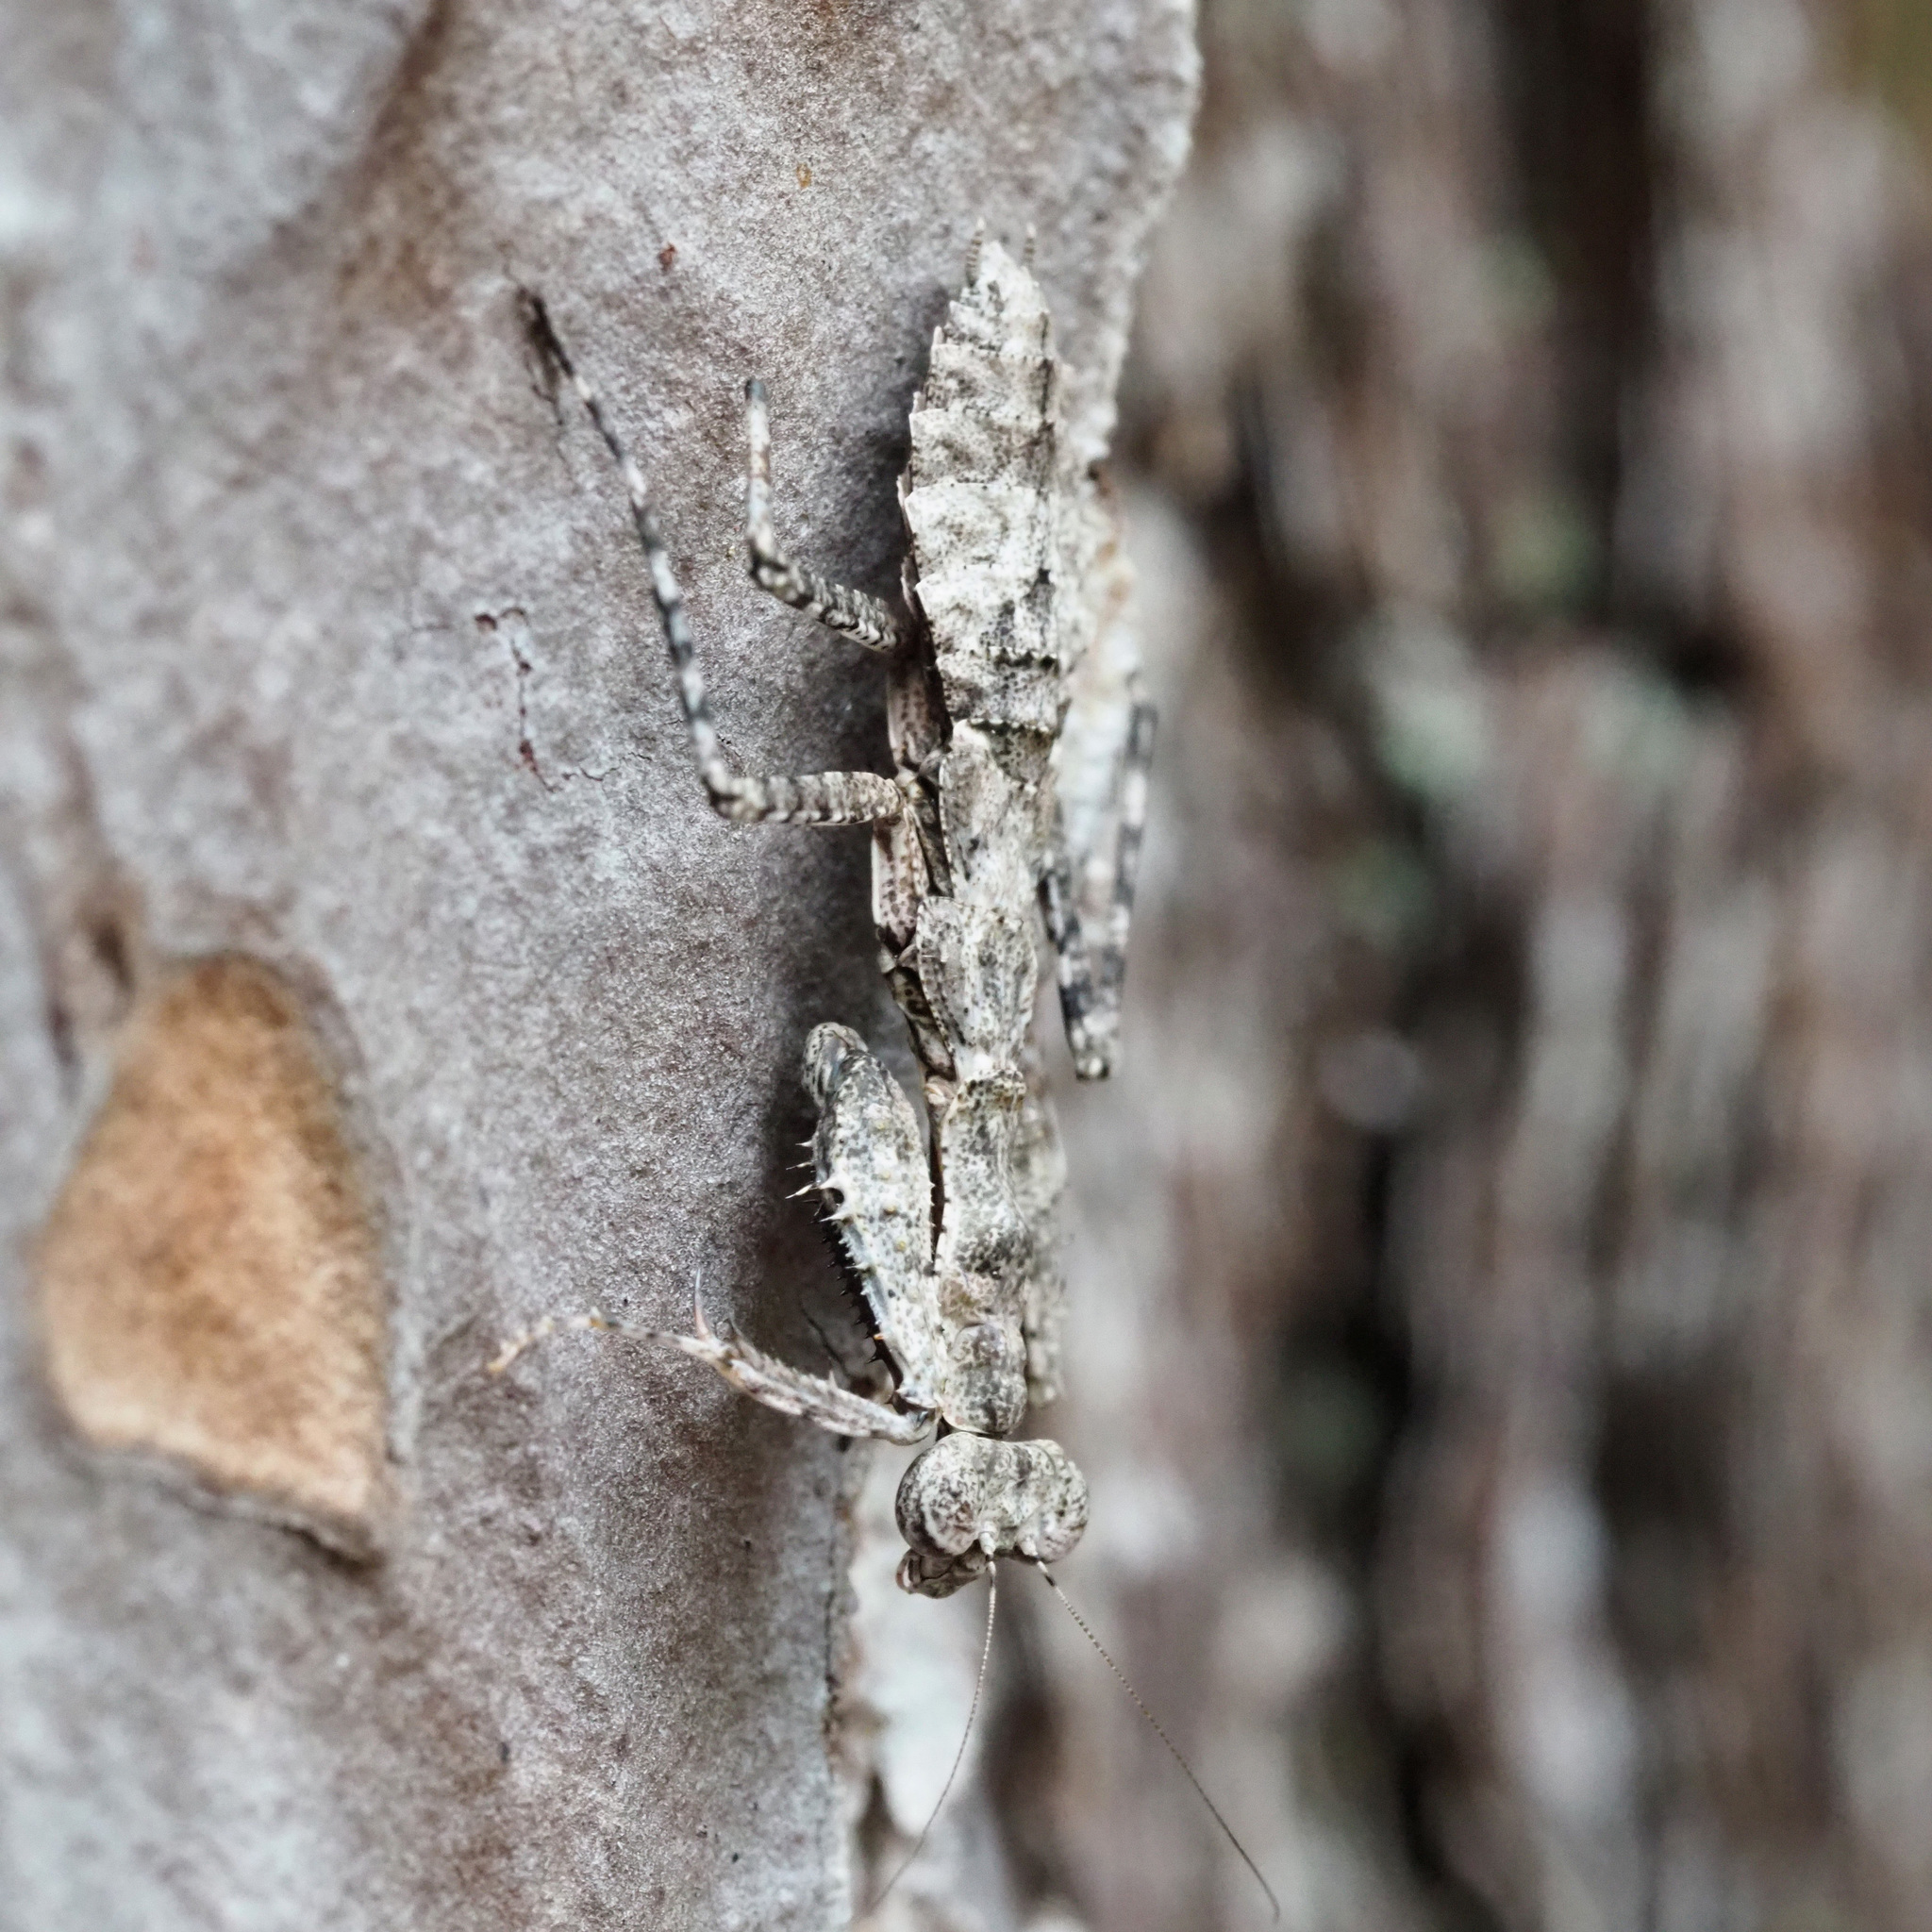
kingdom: Animalia
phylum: Arthropoda
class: Insecta
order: Mantodea
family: Epaphroditidae
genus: Gonatista
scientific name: Gonatista grisea
